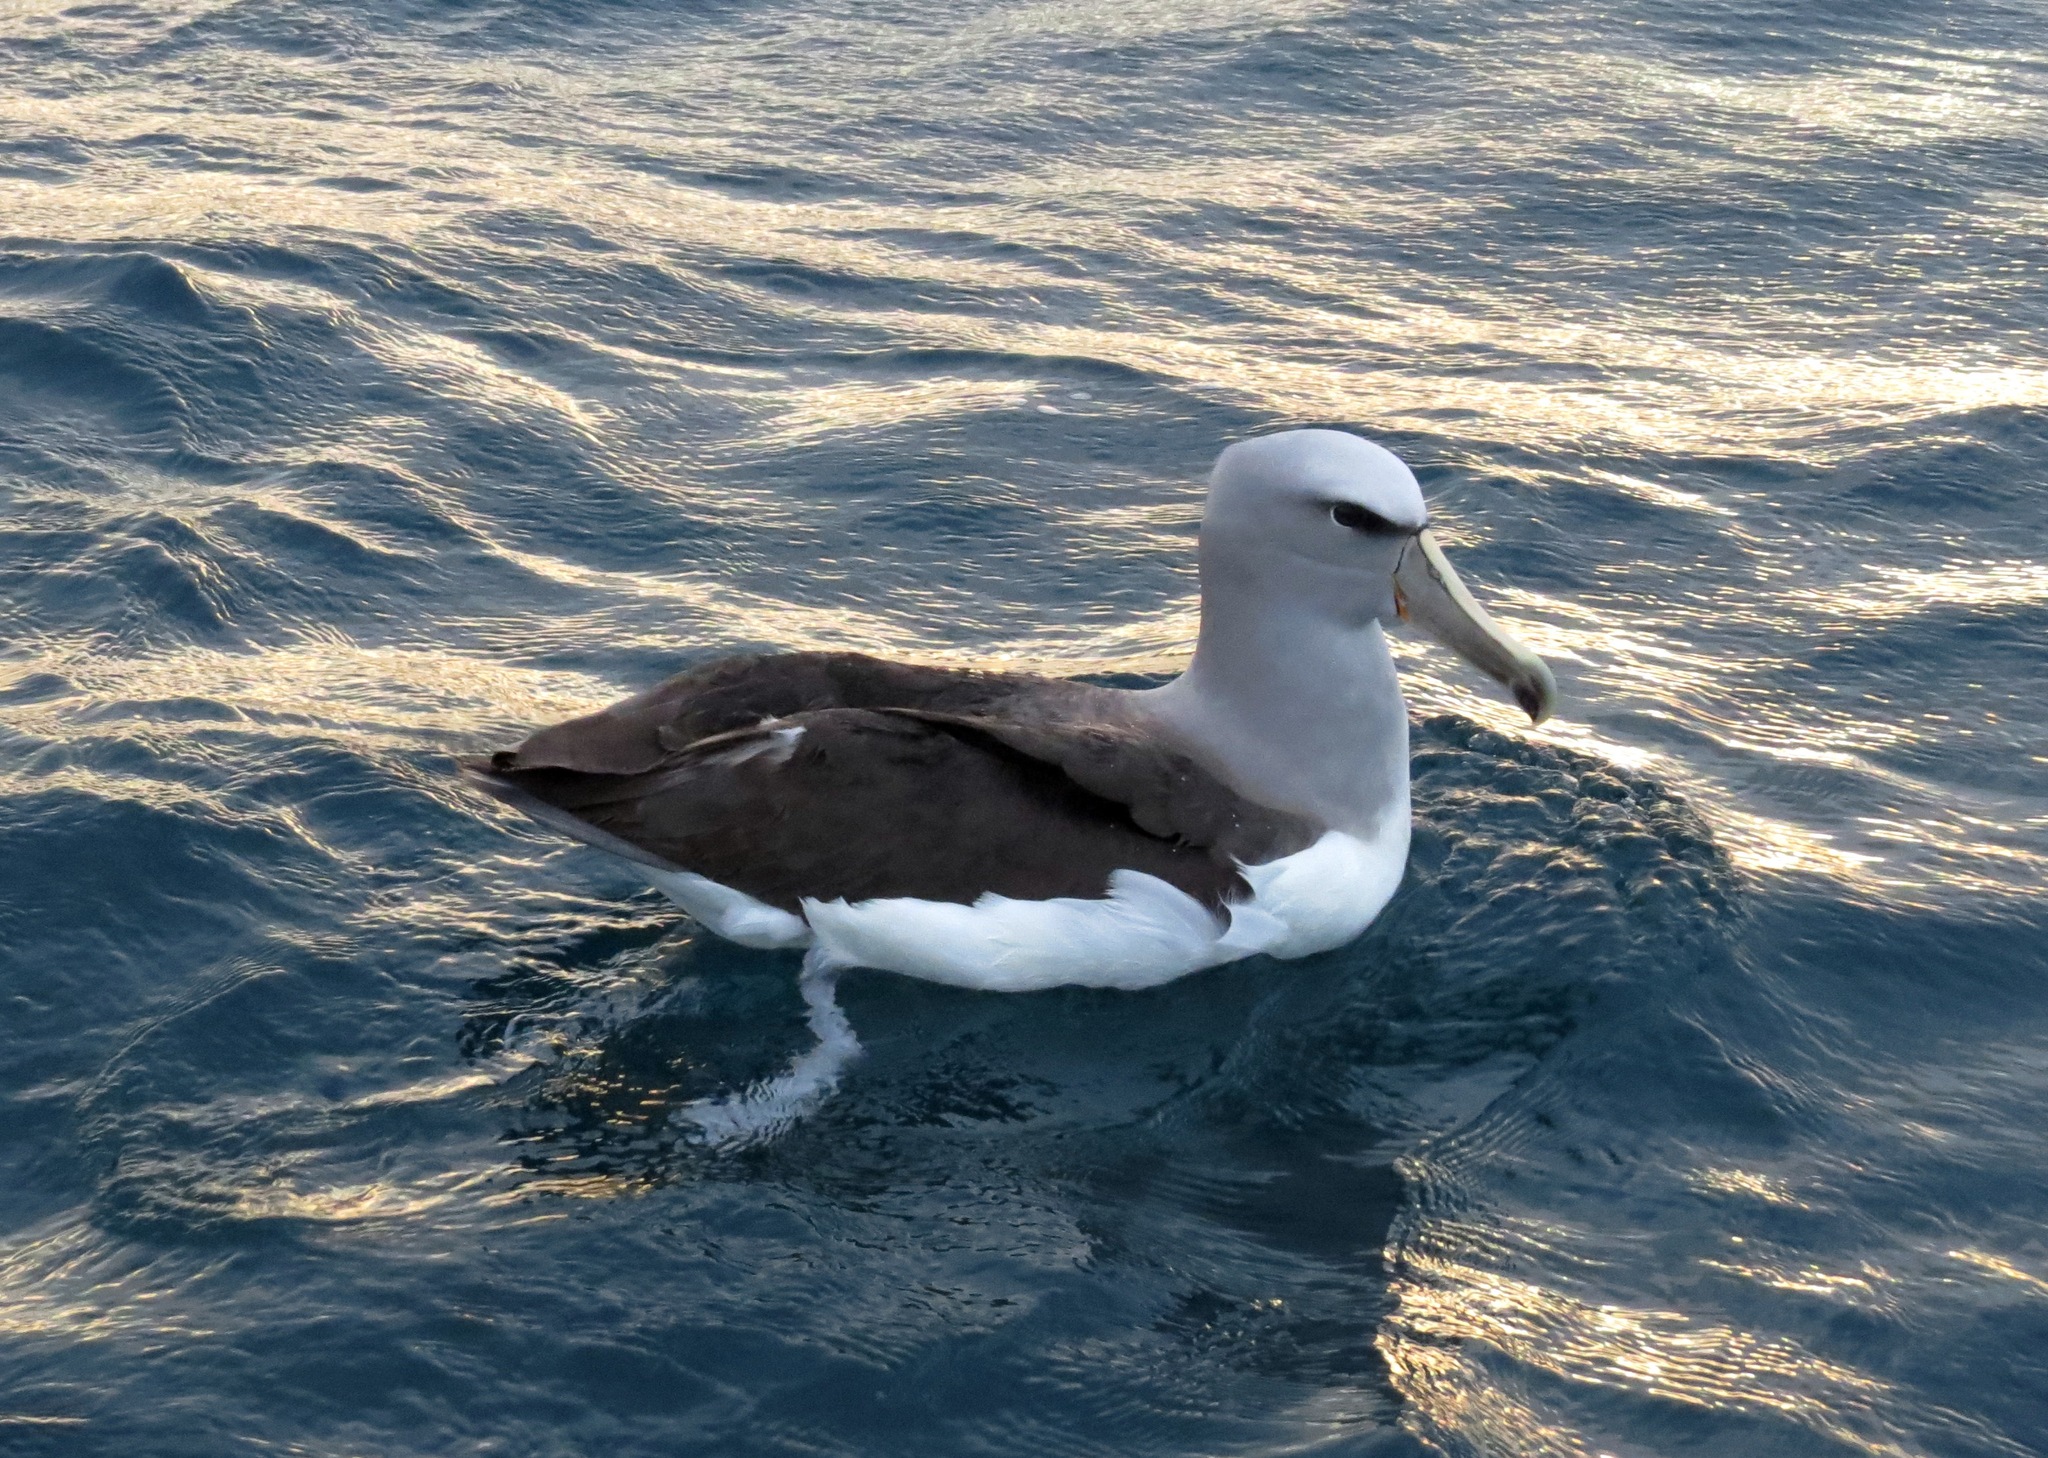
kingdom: Animalia
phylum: Chordata
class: Aves
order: Procellariiformes
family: Diomedeidae
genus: Thalassarche
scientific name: Thalassarche salvini
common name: Salvin's albatross
